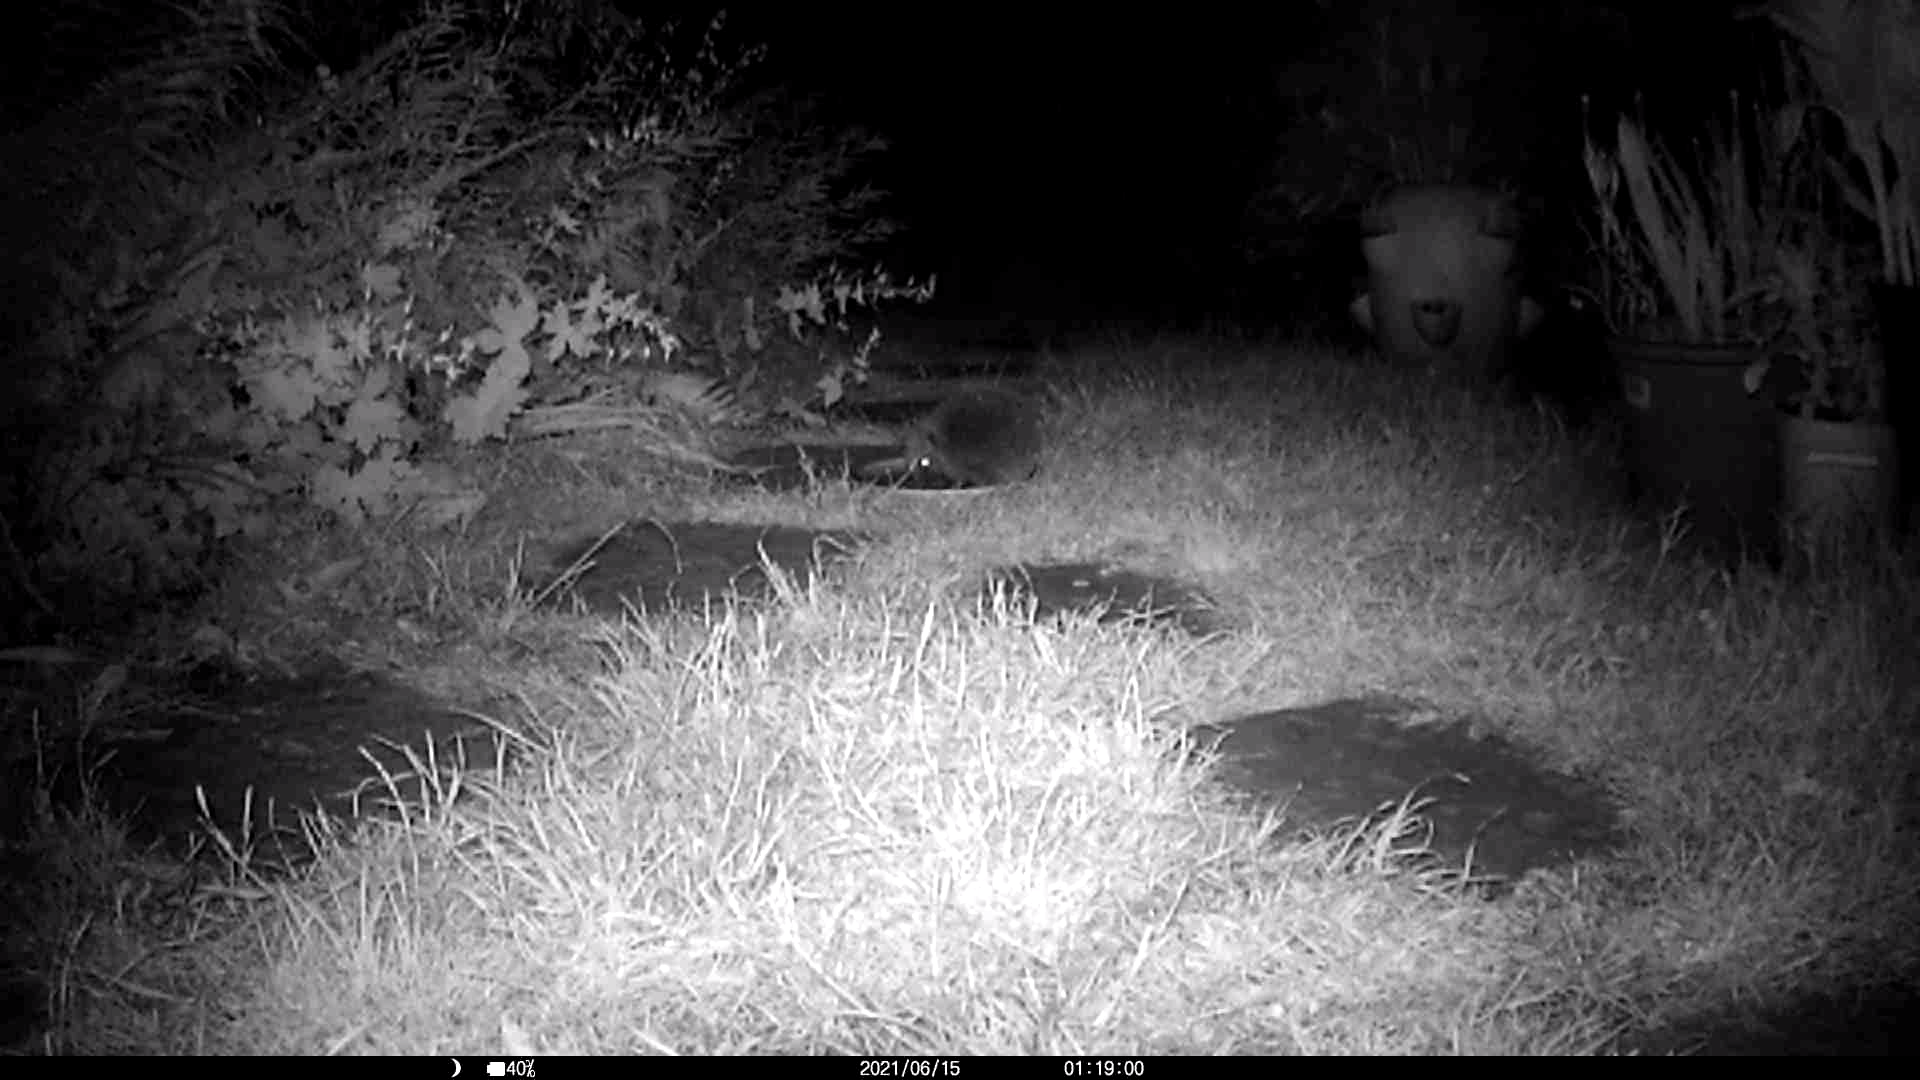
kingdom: Animalia
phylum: Chordata
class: Mammalia
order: Erinaceomorpha
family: Erinaceidae
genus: Erinaceus
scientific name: Erinaceus europaeus
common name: West european hedgehog
